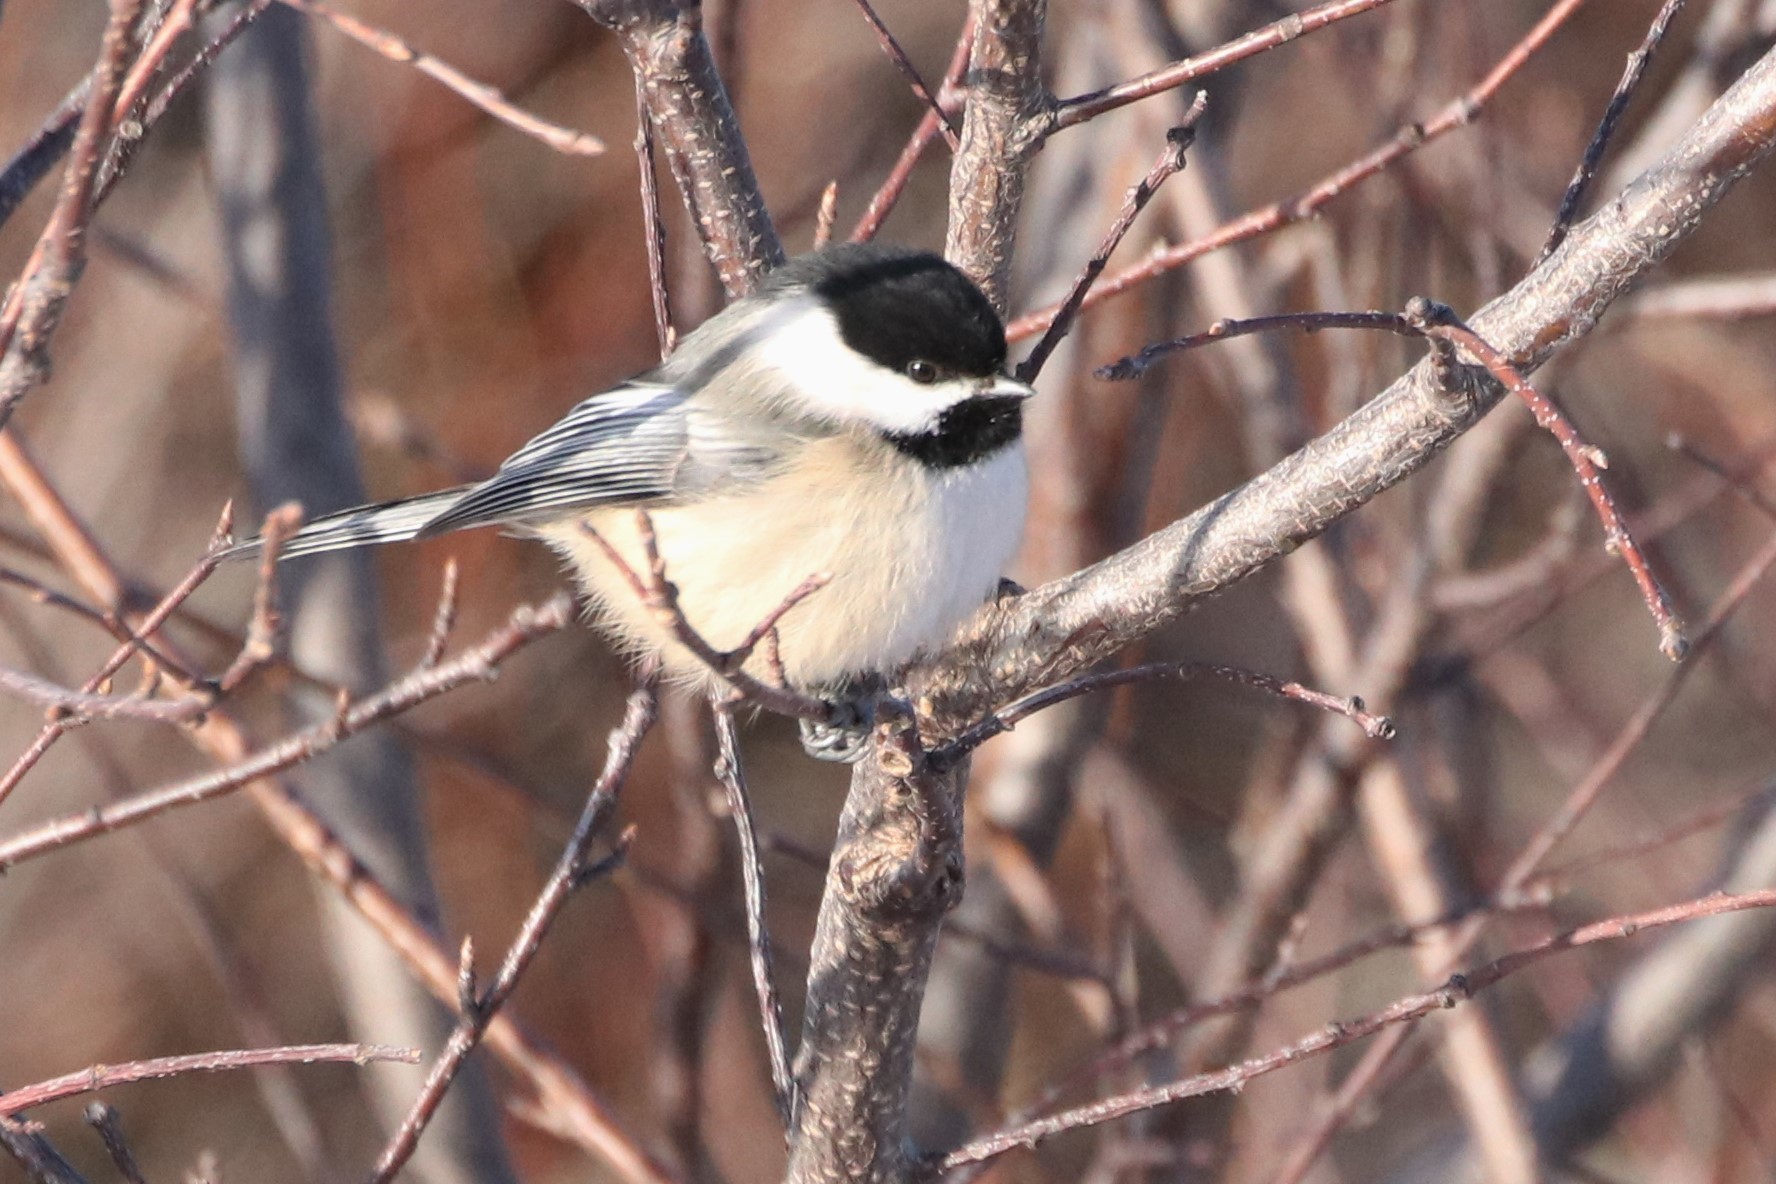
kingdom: Animalia
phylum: Chordata
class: Aves
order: Passeriformes
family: Paridae
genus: Poecile
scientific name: Poecile atricapillus
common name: Black-capped chickadee
